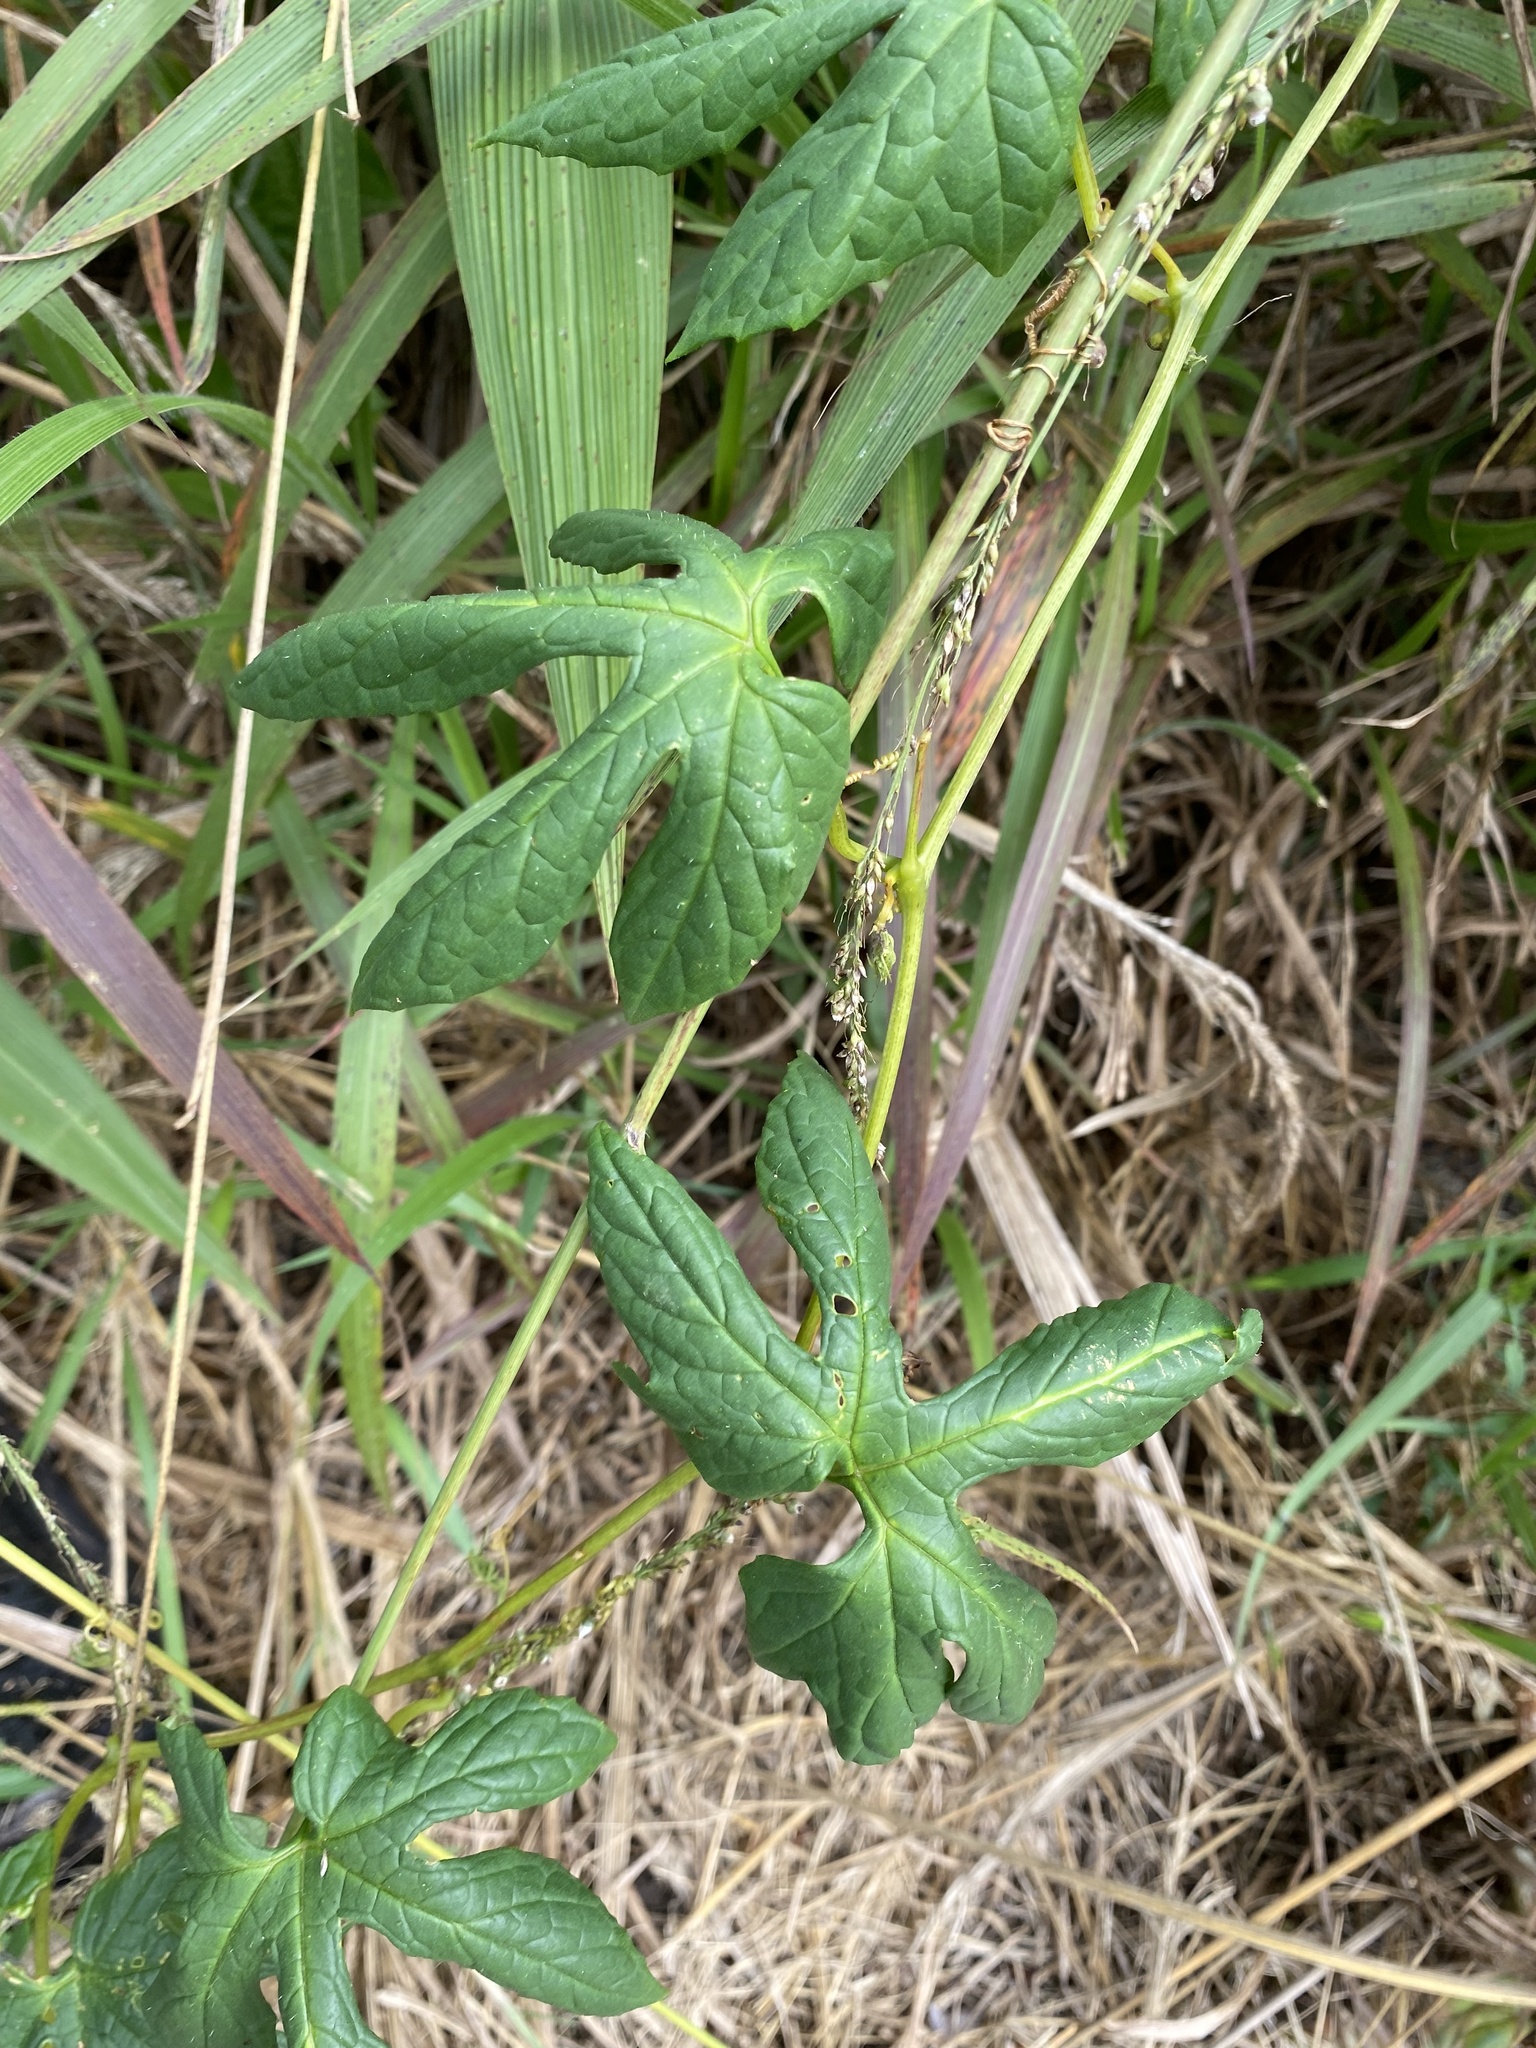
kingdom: Plantae
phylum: Tracheophyta
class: Magnoliopsida
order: Cucurbitales
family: Cucurbitaceae
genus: Diplocyclos
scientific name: Diplocyclos palmatus
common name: Striped-cucumber
